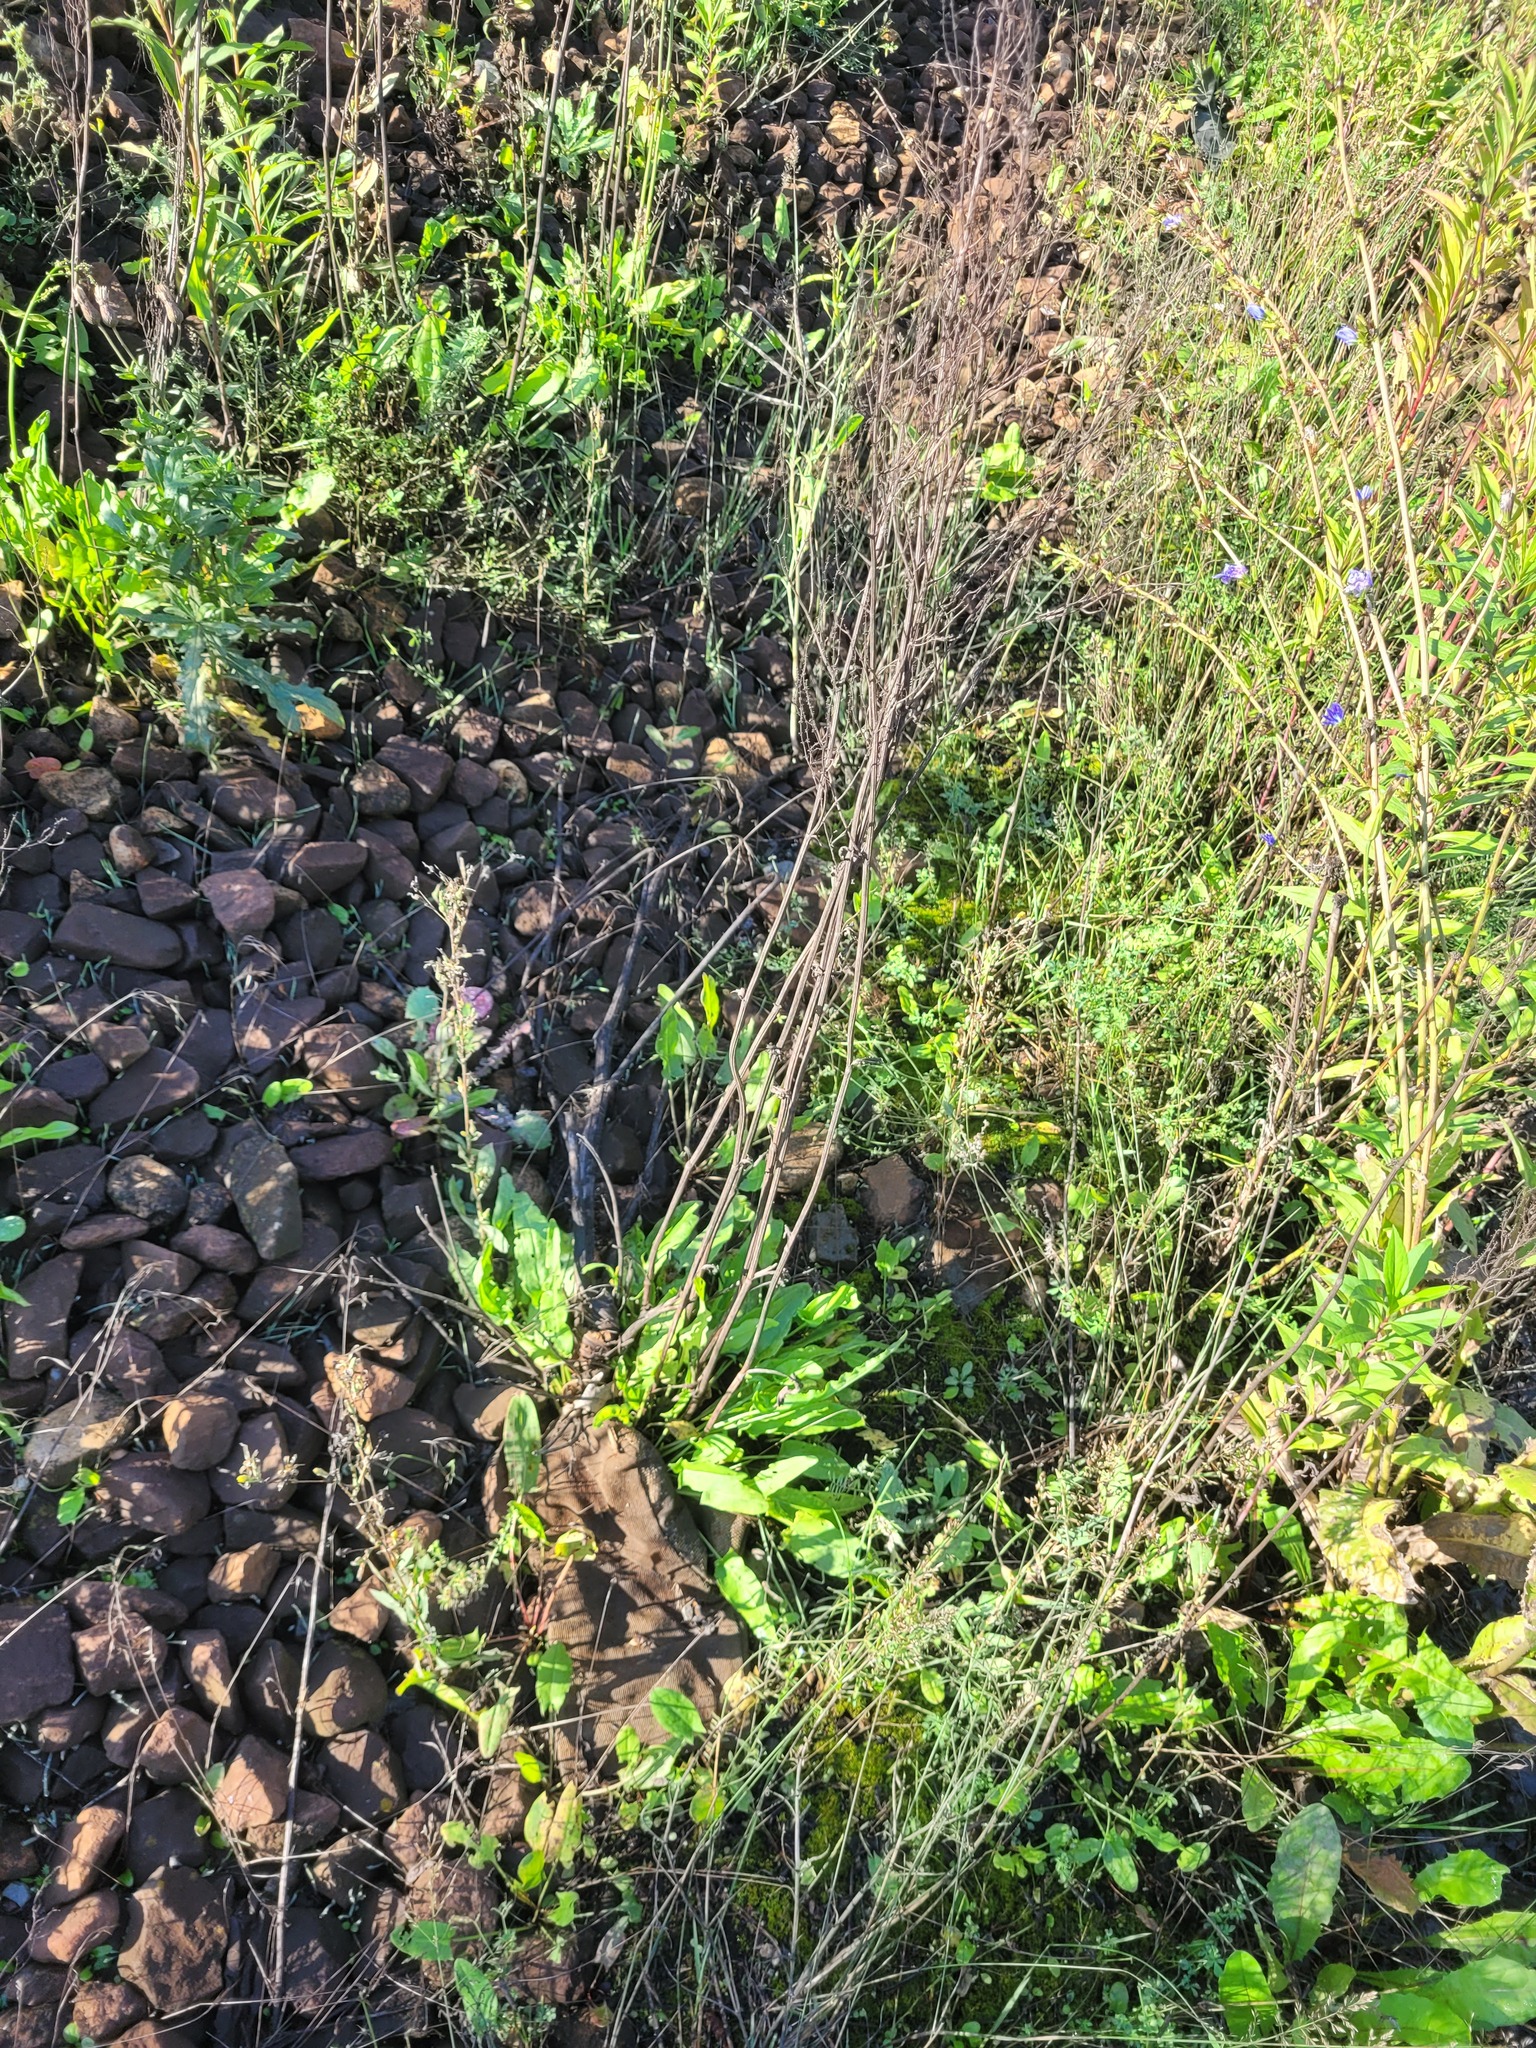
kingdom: Plantae
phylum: Tracheophyta
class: Magnoliopsida
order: Caryophyllales
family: Polygonaceae
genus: Rumex
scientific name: Rumex thyrsiflorus
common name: Garden sorrel
